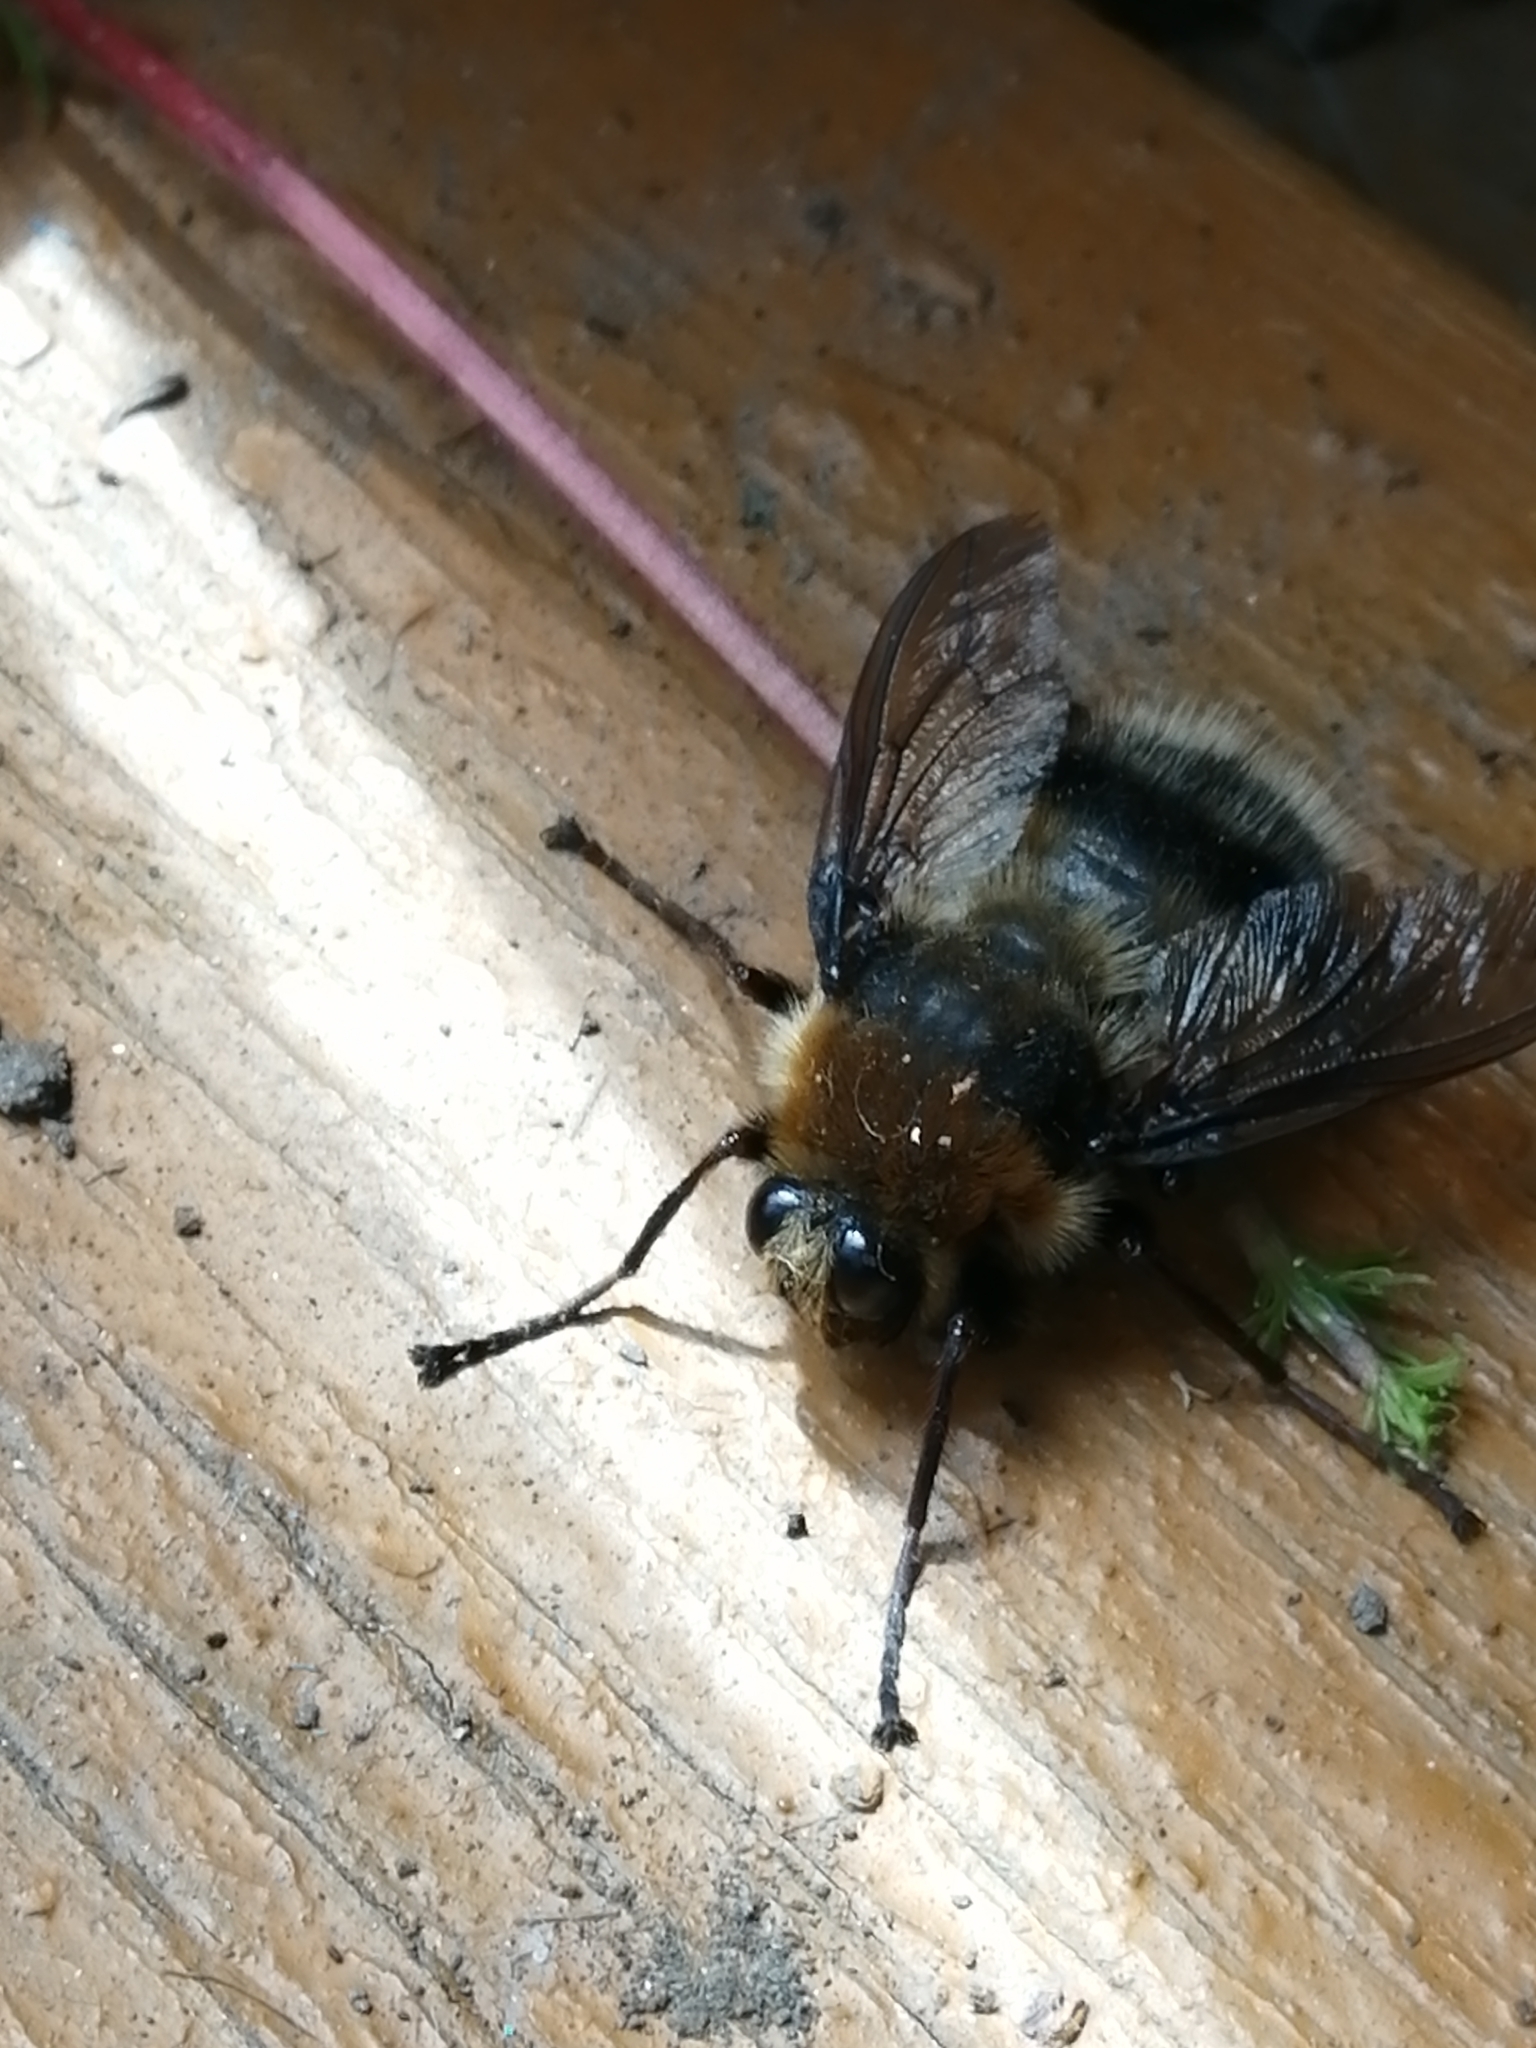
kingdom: Animalia
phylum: Arthropoda
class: Insecta
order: Diptera
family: Oestridae
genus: Portschinskia
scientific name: Portschinskia loewii
